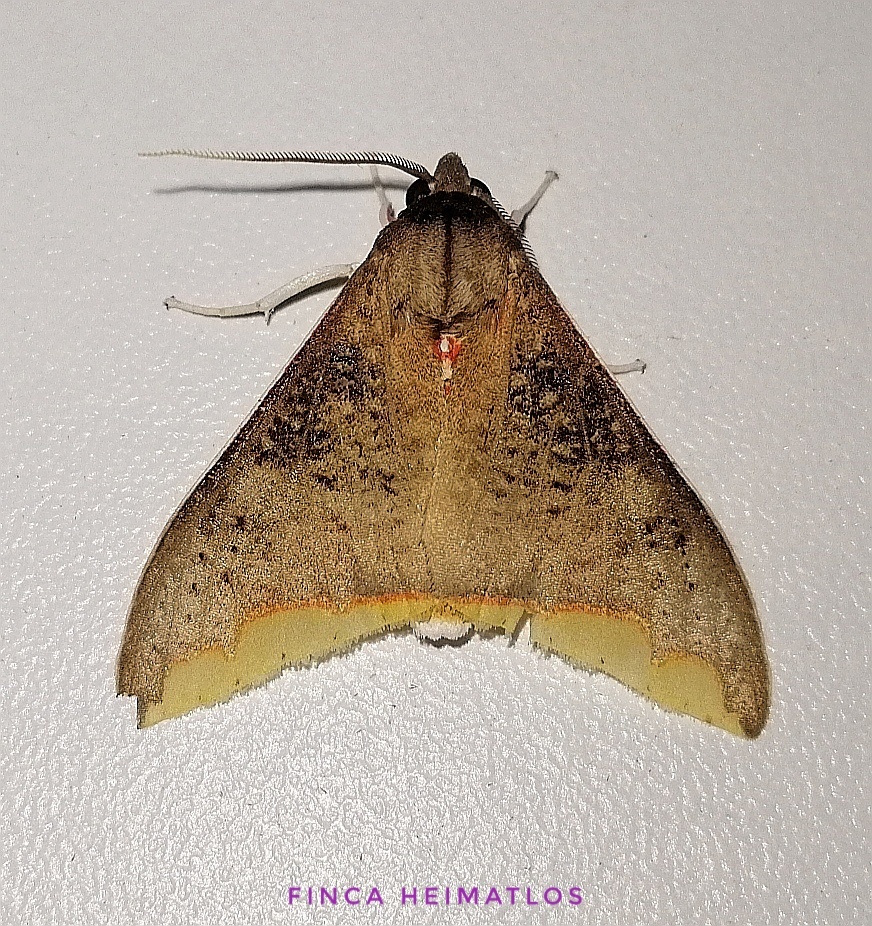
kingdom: Animalia
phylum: Arthropoda
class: Insecta
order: Lepidoptera
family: Erebidae
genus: Arctiarpia
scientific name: Arctiarpia mossi
